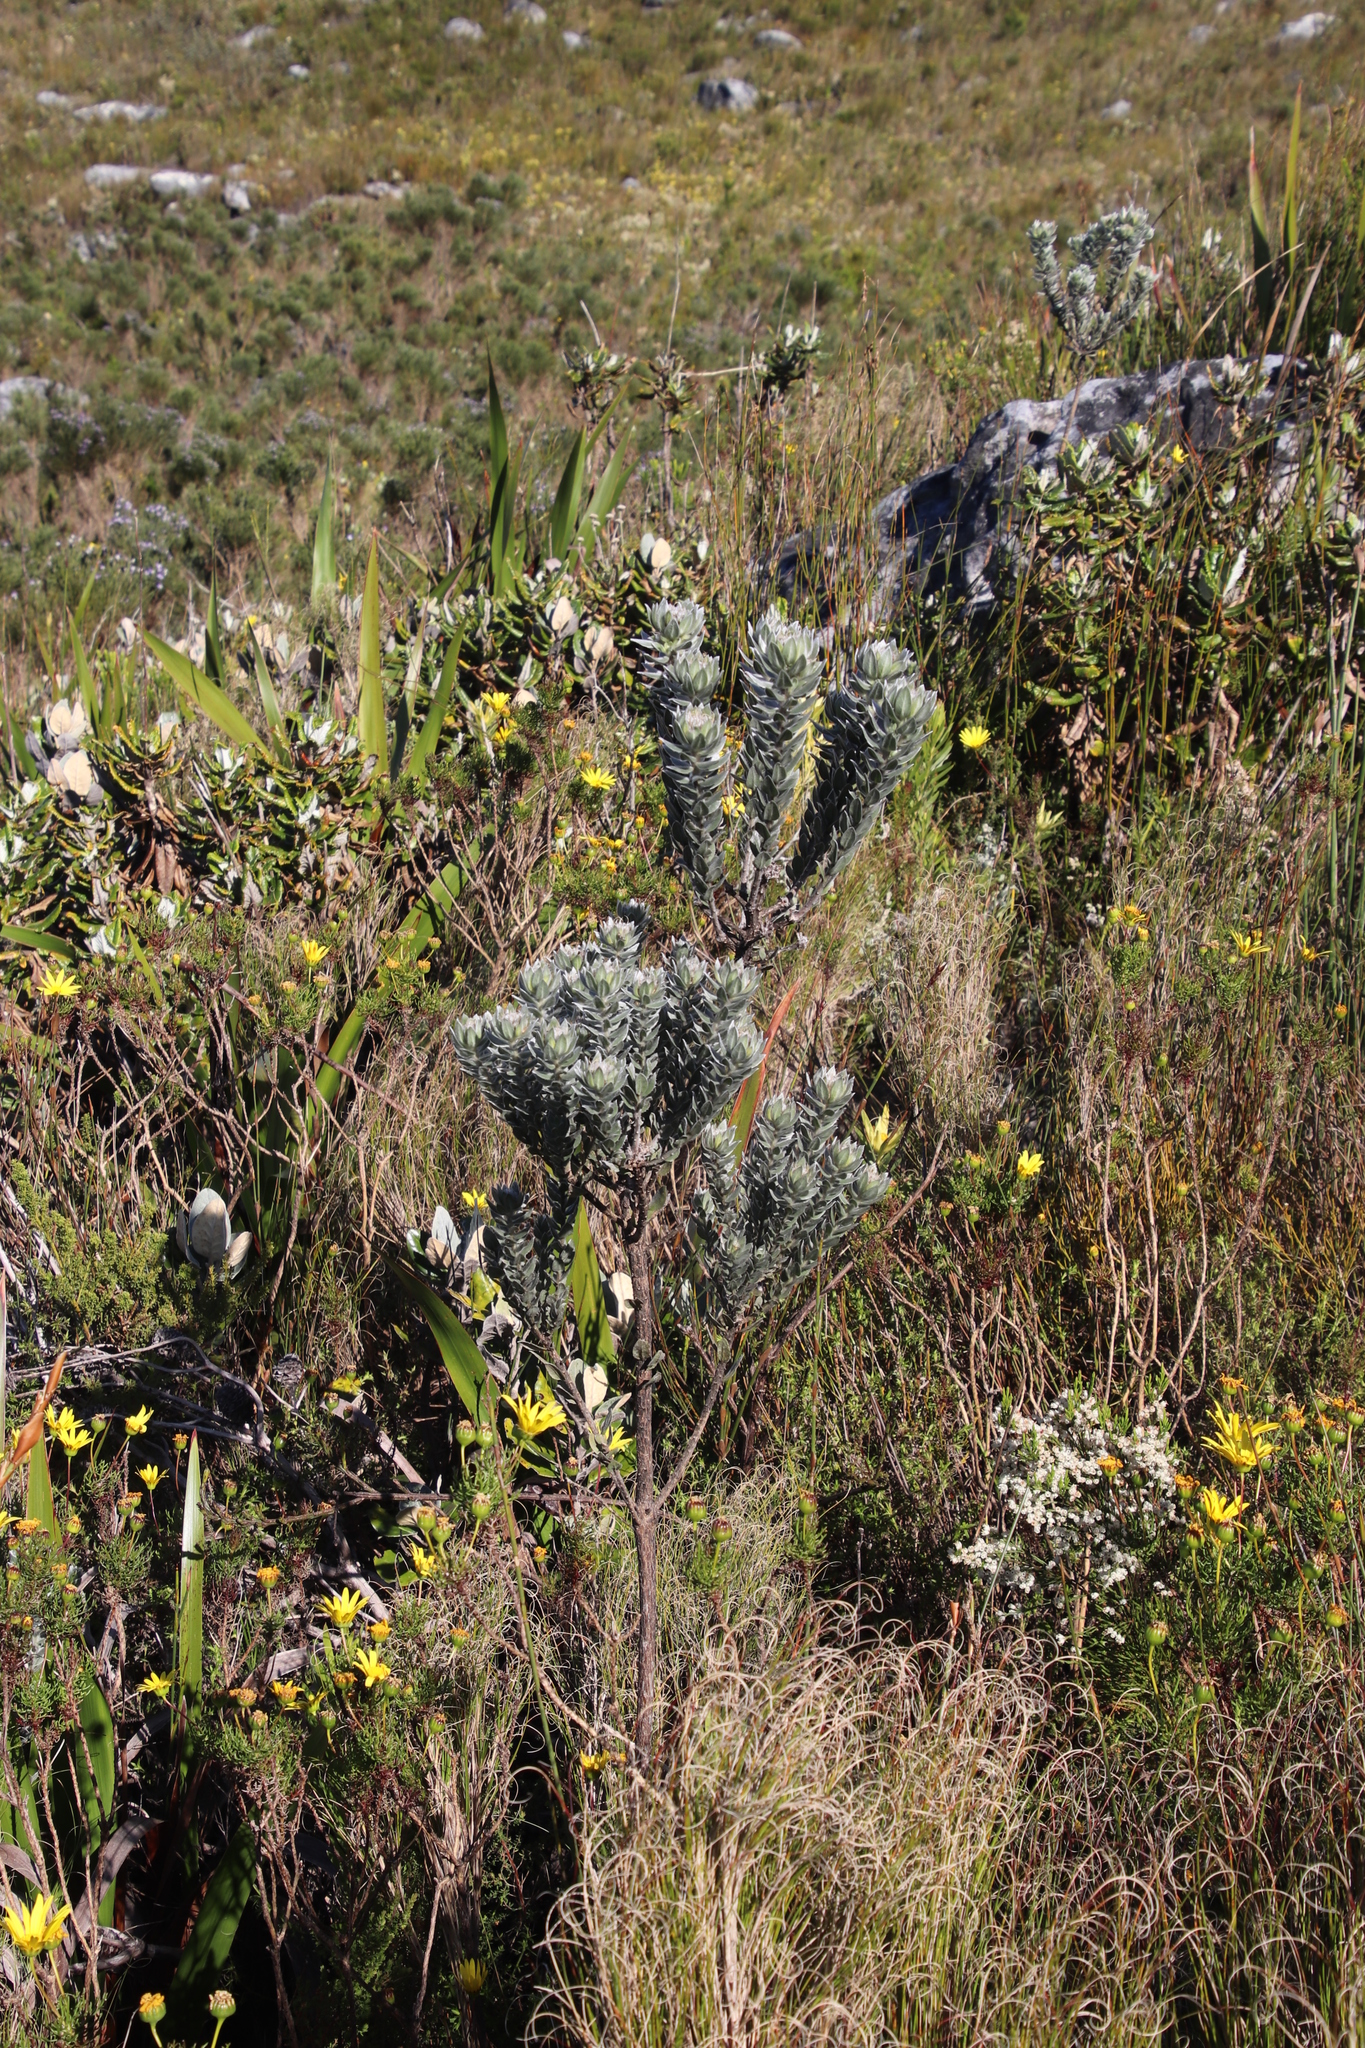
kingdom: Plantae
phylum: Tracheophyta
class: Magnoliopsida
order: Fabales
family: Fabaceae
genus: Xiphotheca
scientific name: Xiphotheca fruticosa
